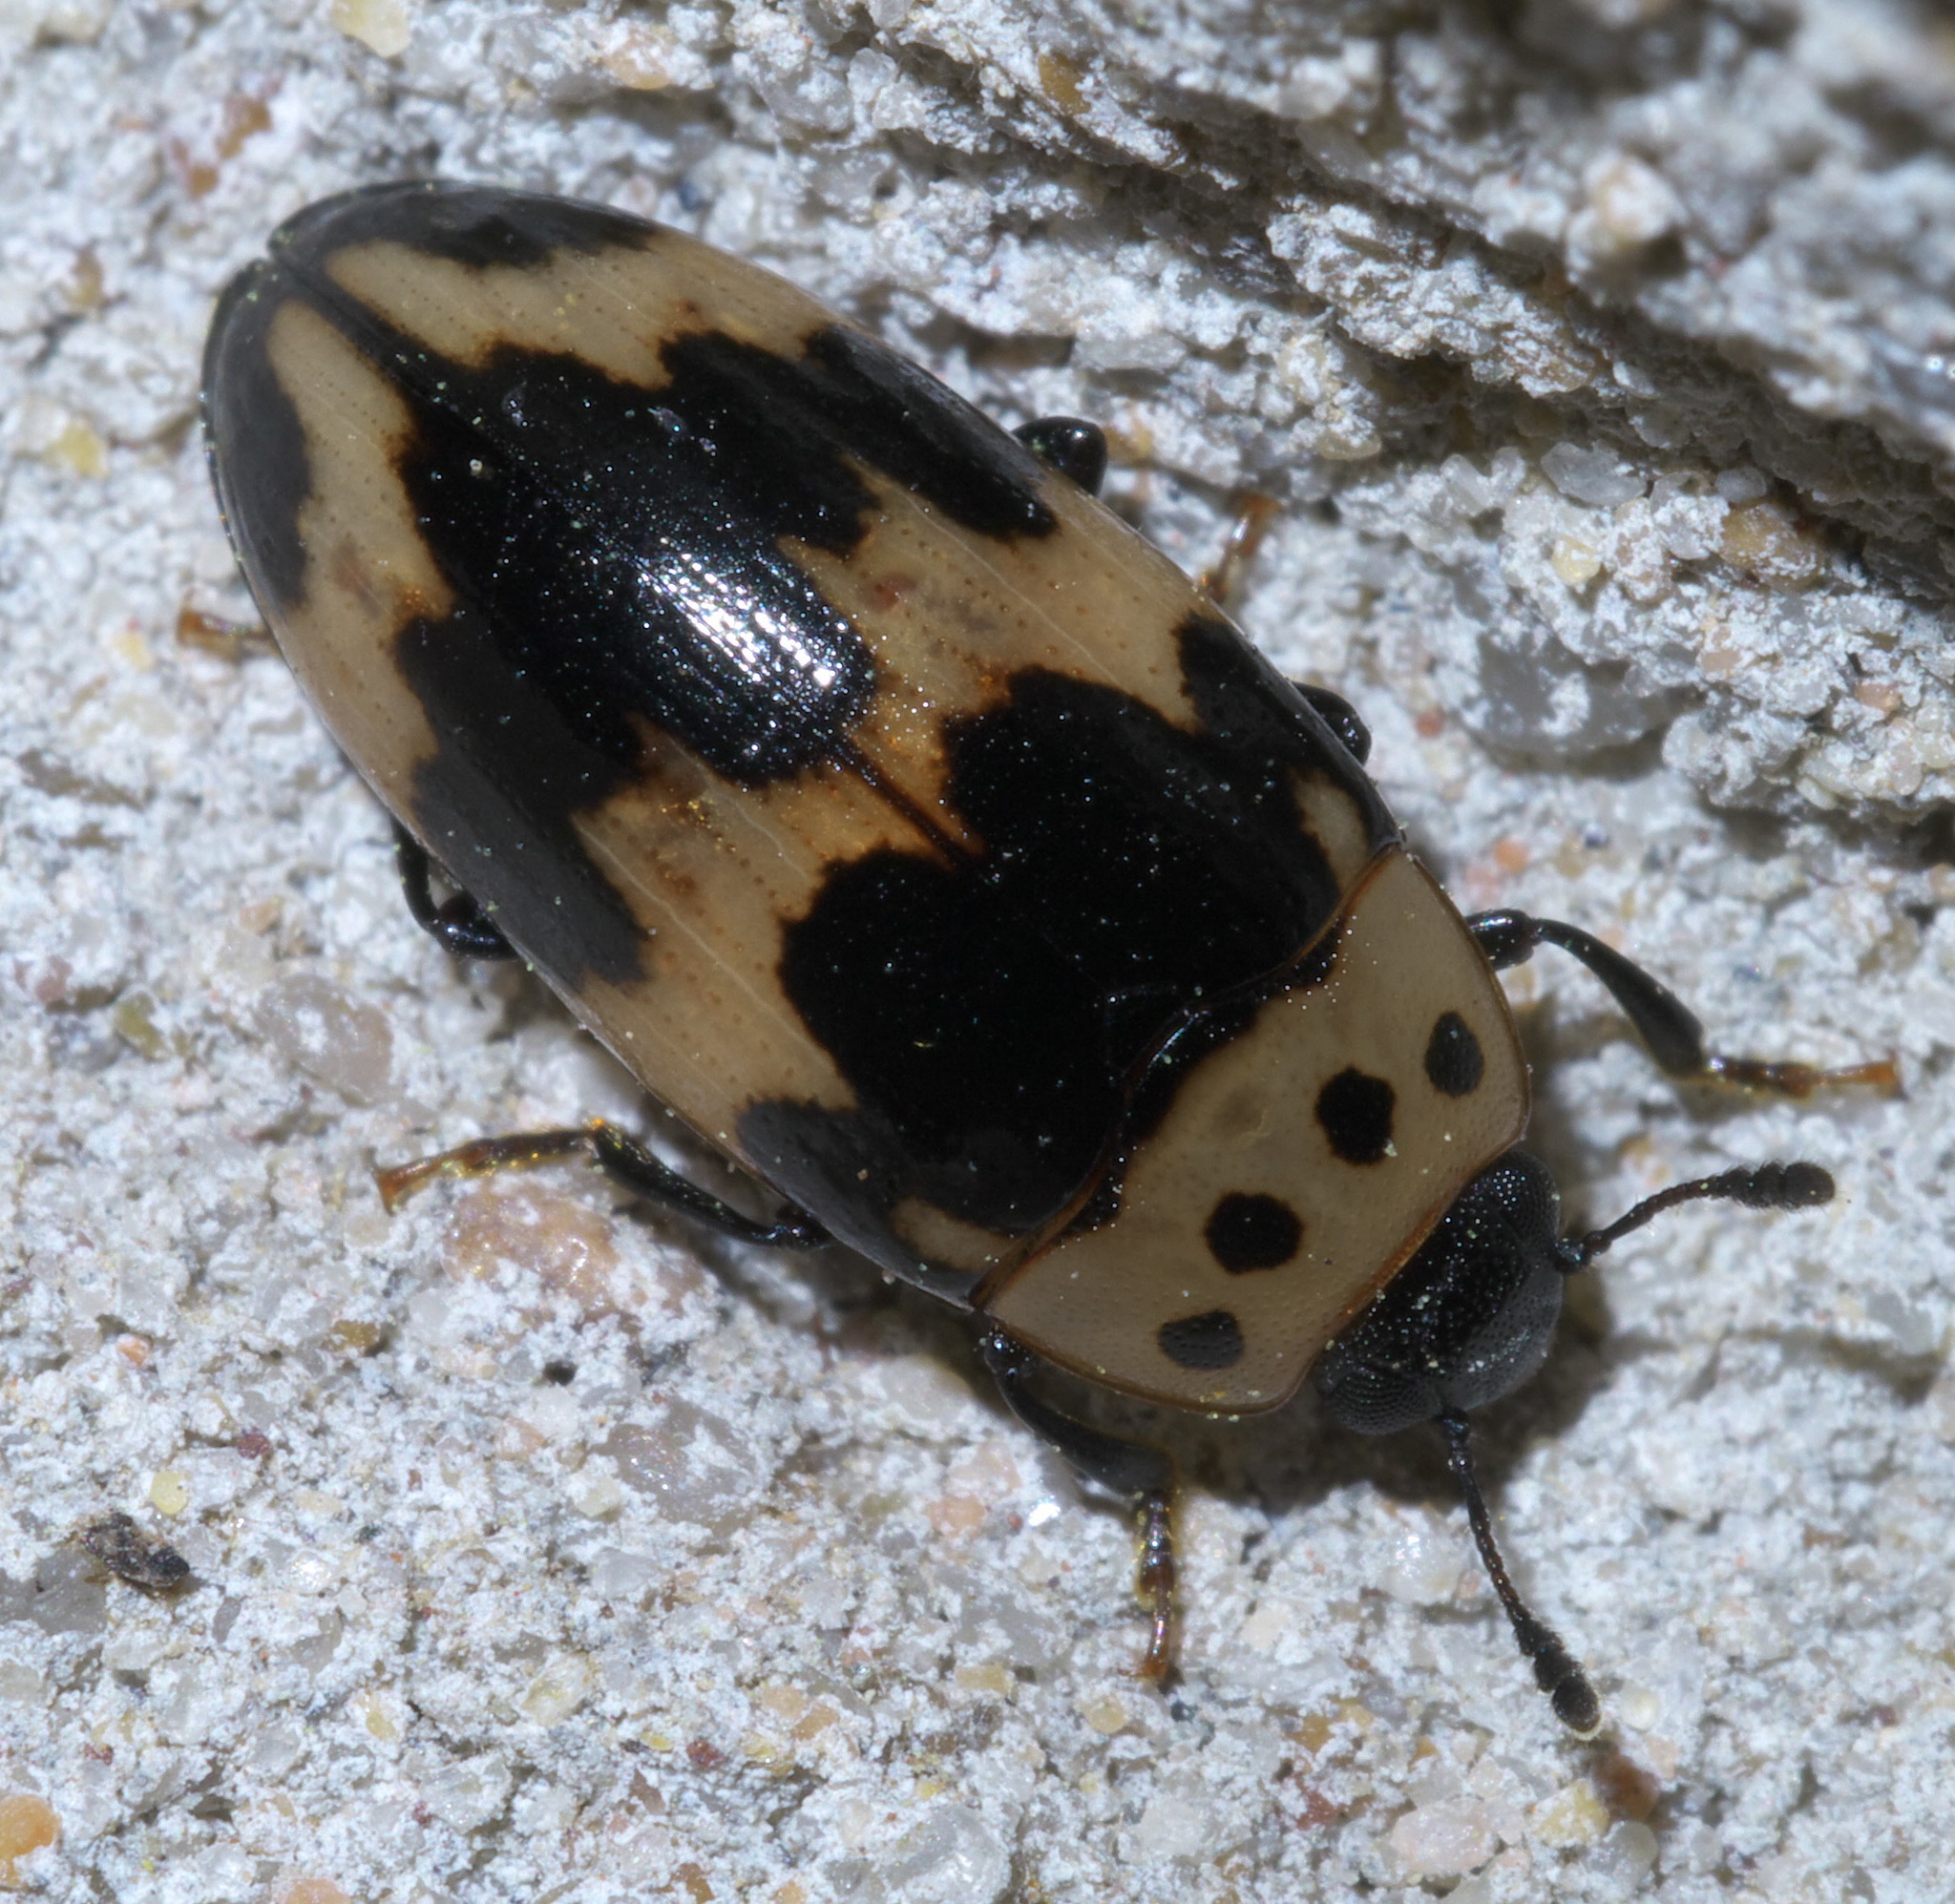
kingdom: Animalia
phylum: Arthropoda
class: Insecta
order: Coleoptera
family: Erotylidae
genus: Ischyrus
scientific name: Ischyrus quadripunctatus
